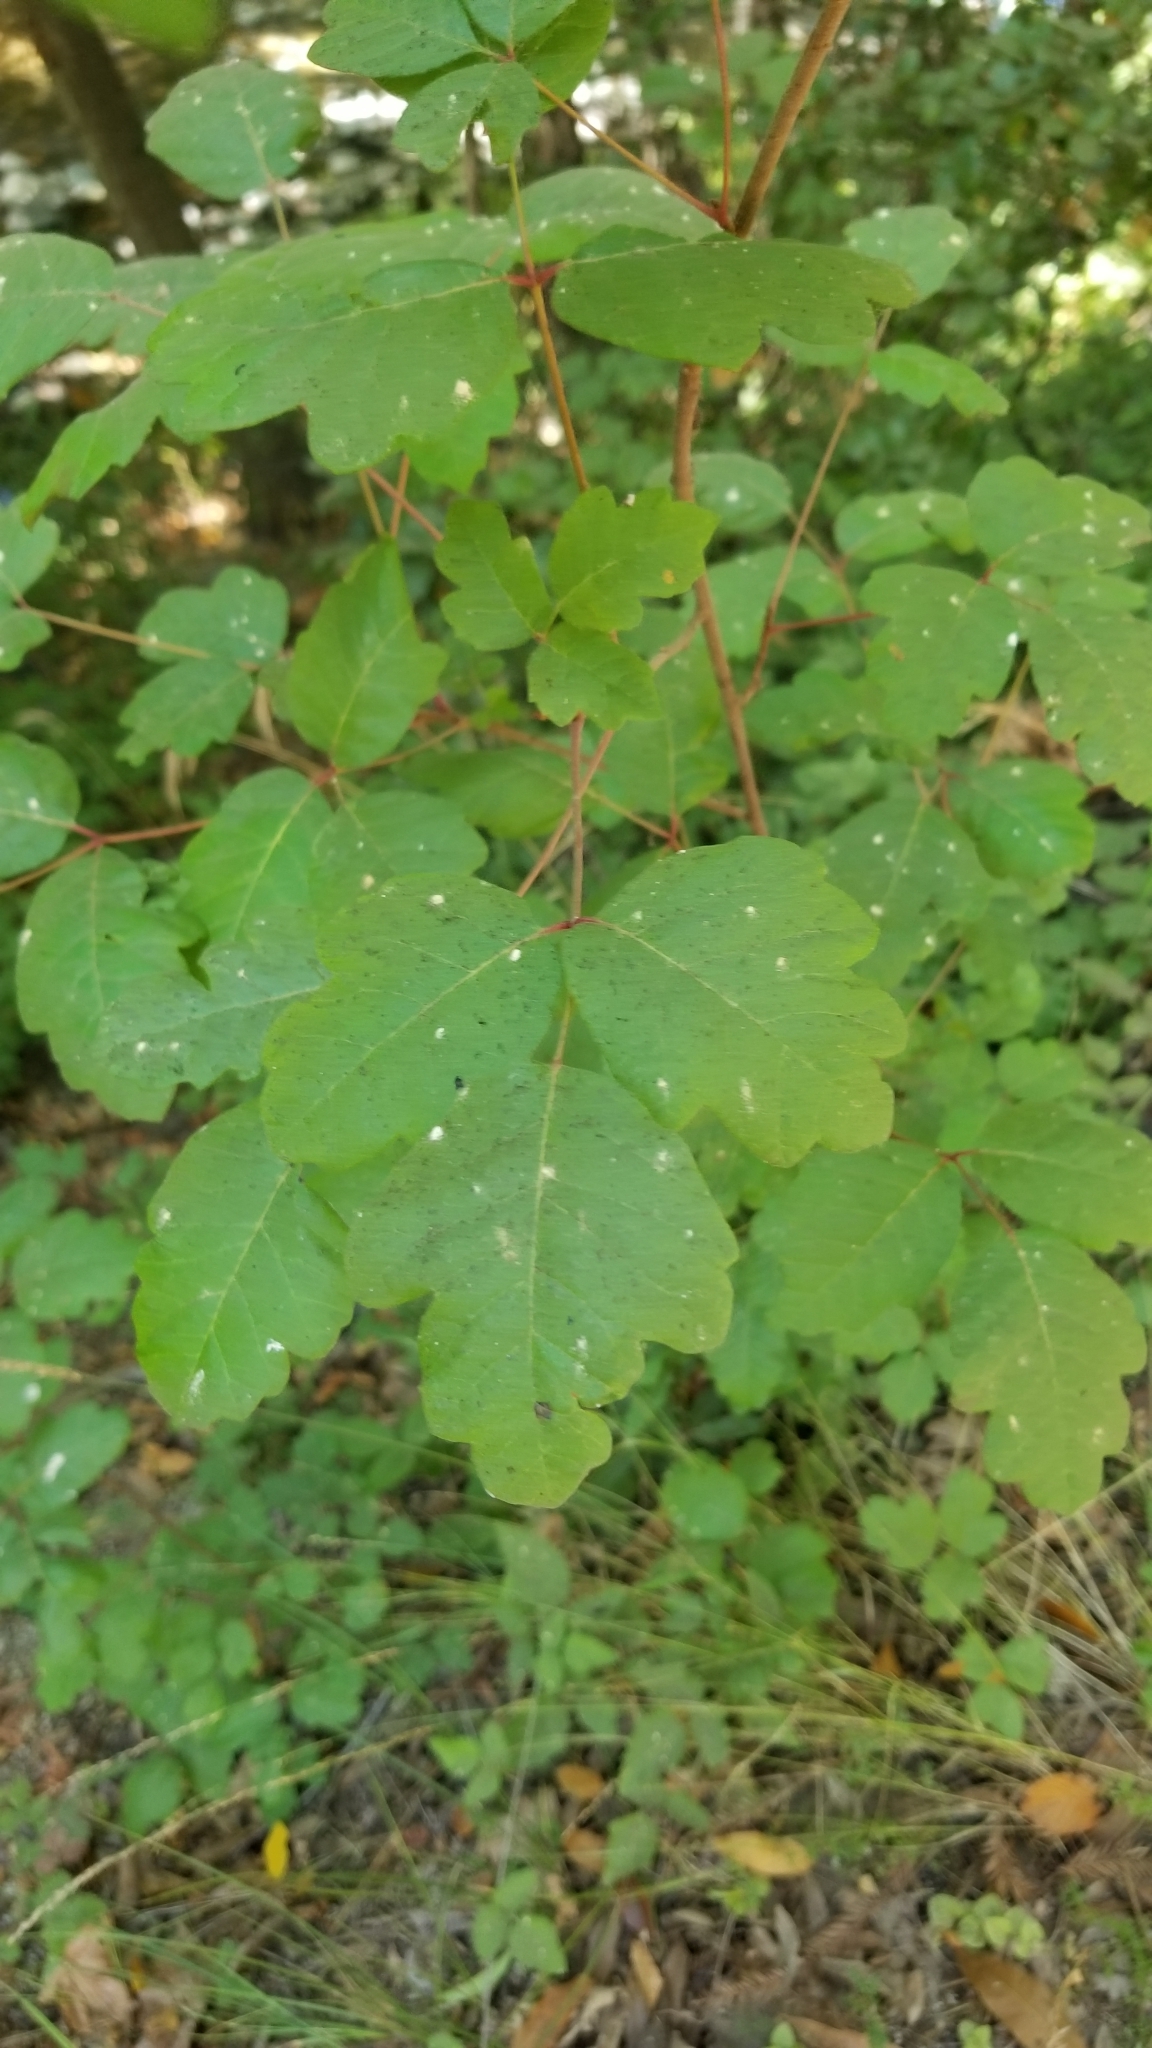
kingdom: Plantae
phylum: Tracheophyta
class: Magnoliopsida
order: Sapindales
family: Anacardiaceae
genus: Toxicodendron
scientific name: Toxicodendron diversilobum
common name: Pacific poison-oak
